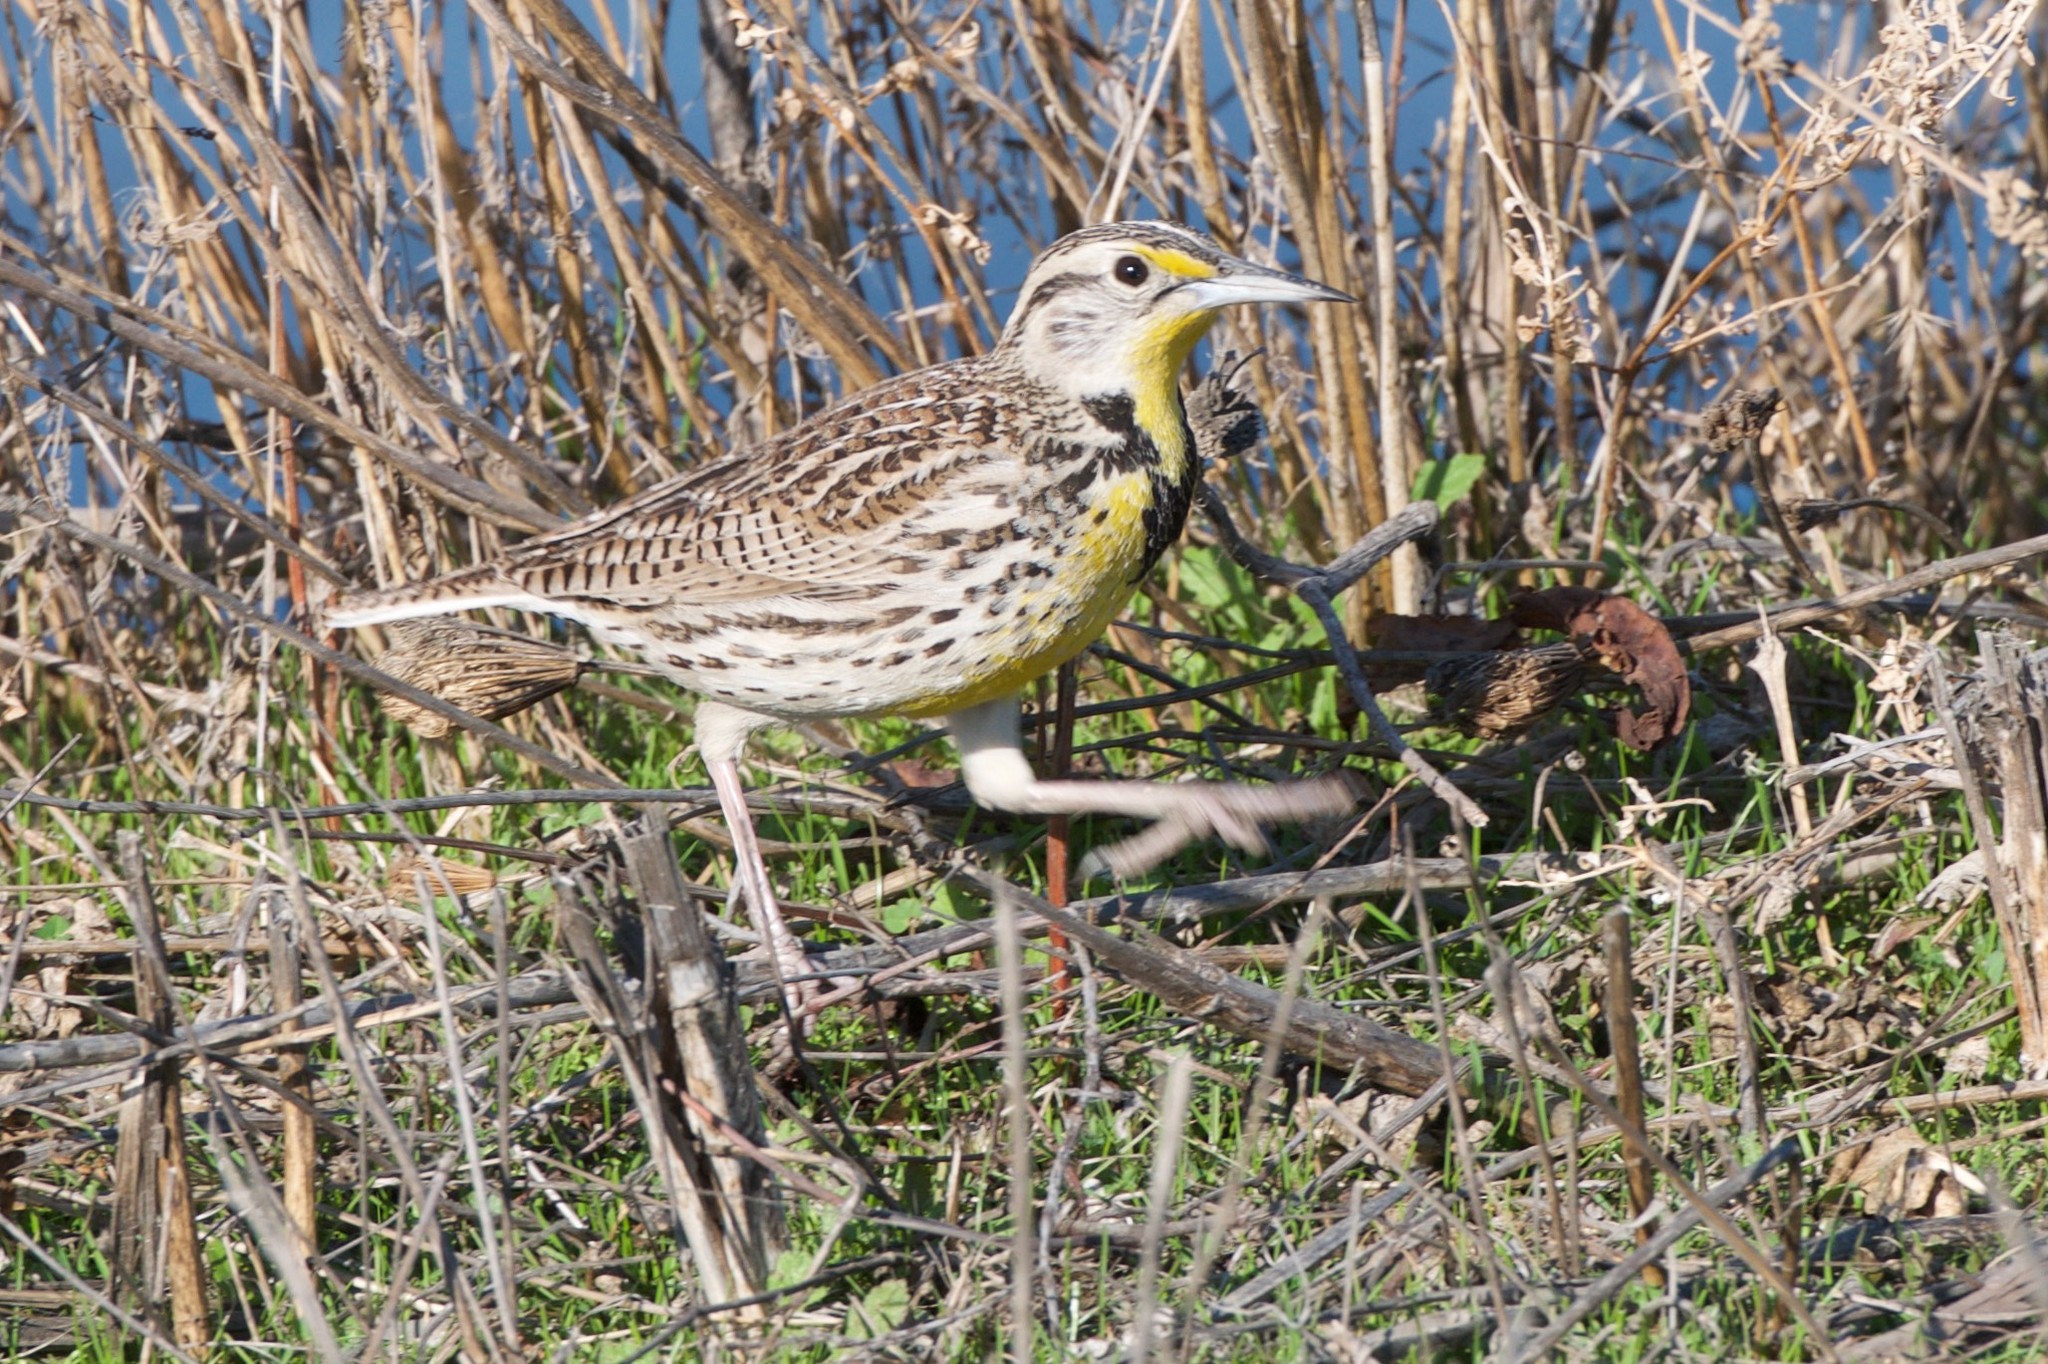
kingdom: Animalia
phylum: Chordata
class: Aves
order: Passeriformes
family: Icteridae
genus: Sturnella
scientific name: Sturnella neglecta
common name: Western meadowlark
